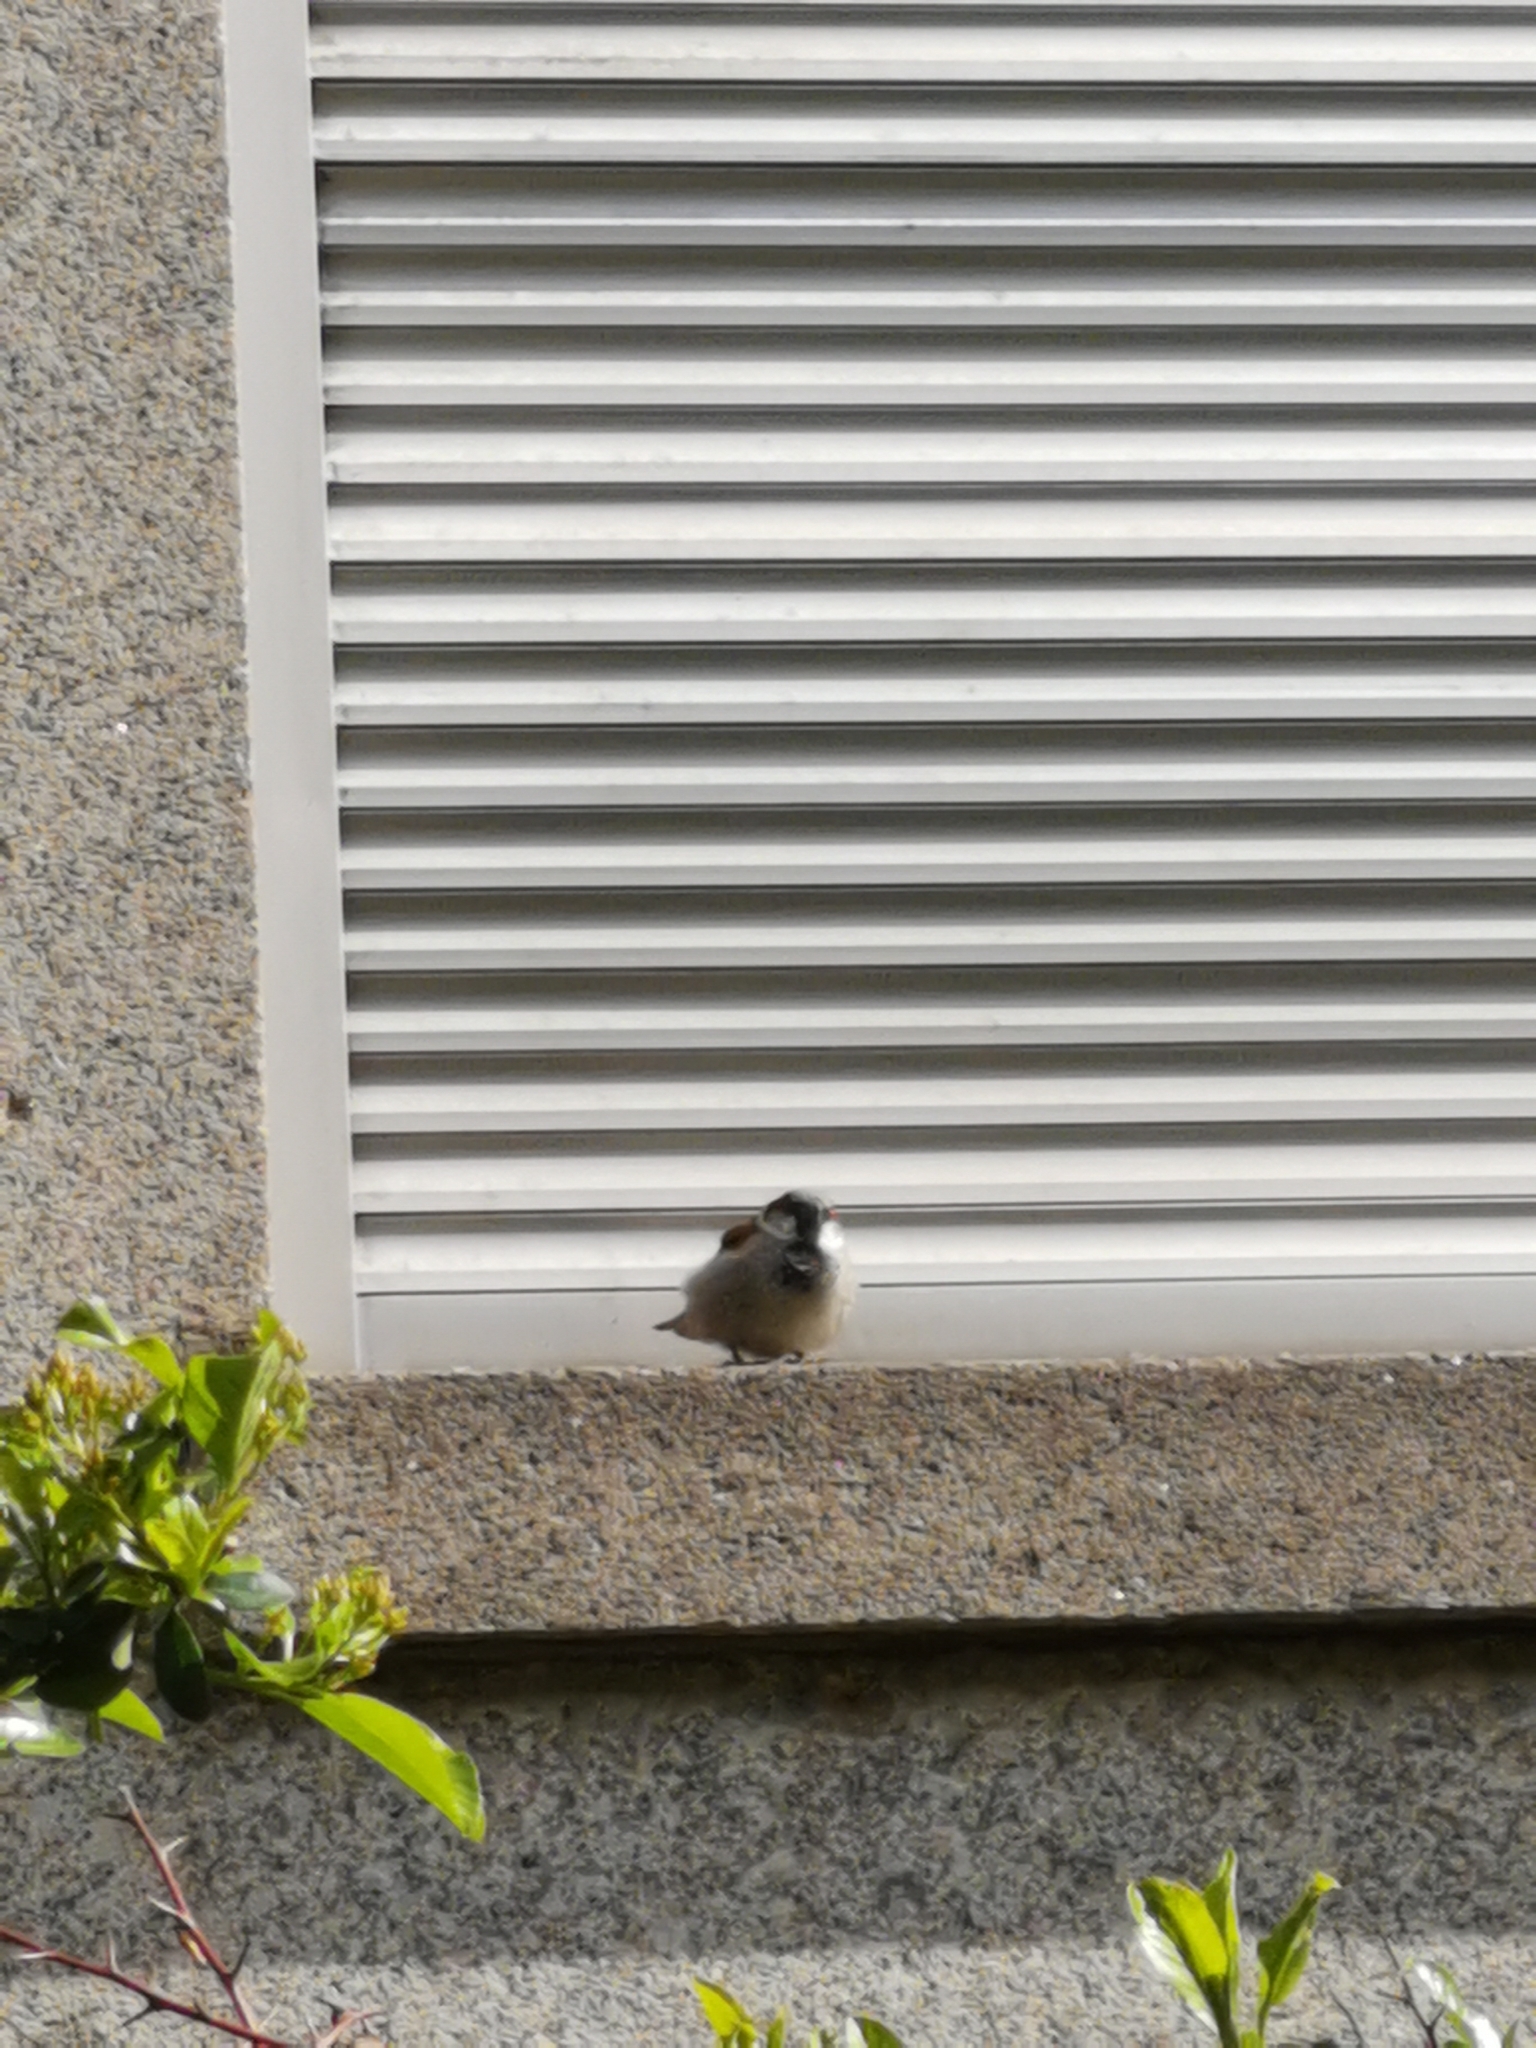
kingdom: Animalia
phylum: Chordata
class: Aves
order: Passeriformes
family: Passeridae
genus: Passer
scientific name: Passer domesticus
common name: House sparrow
